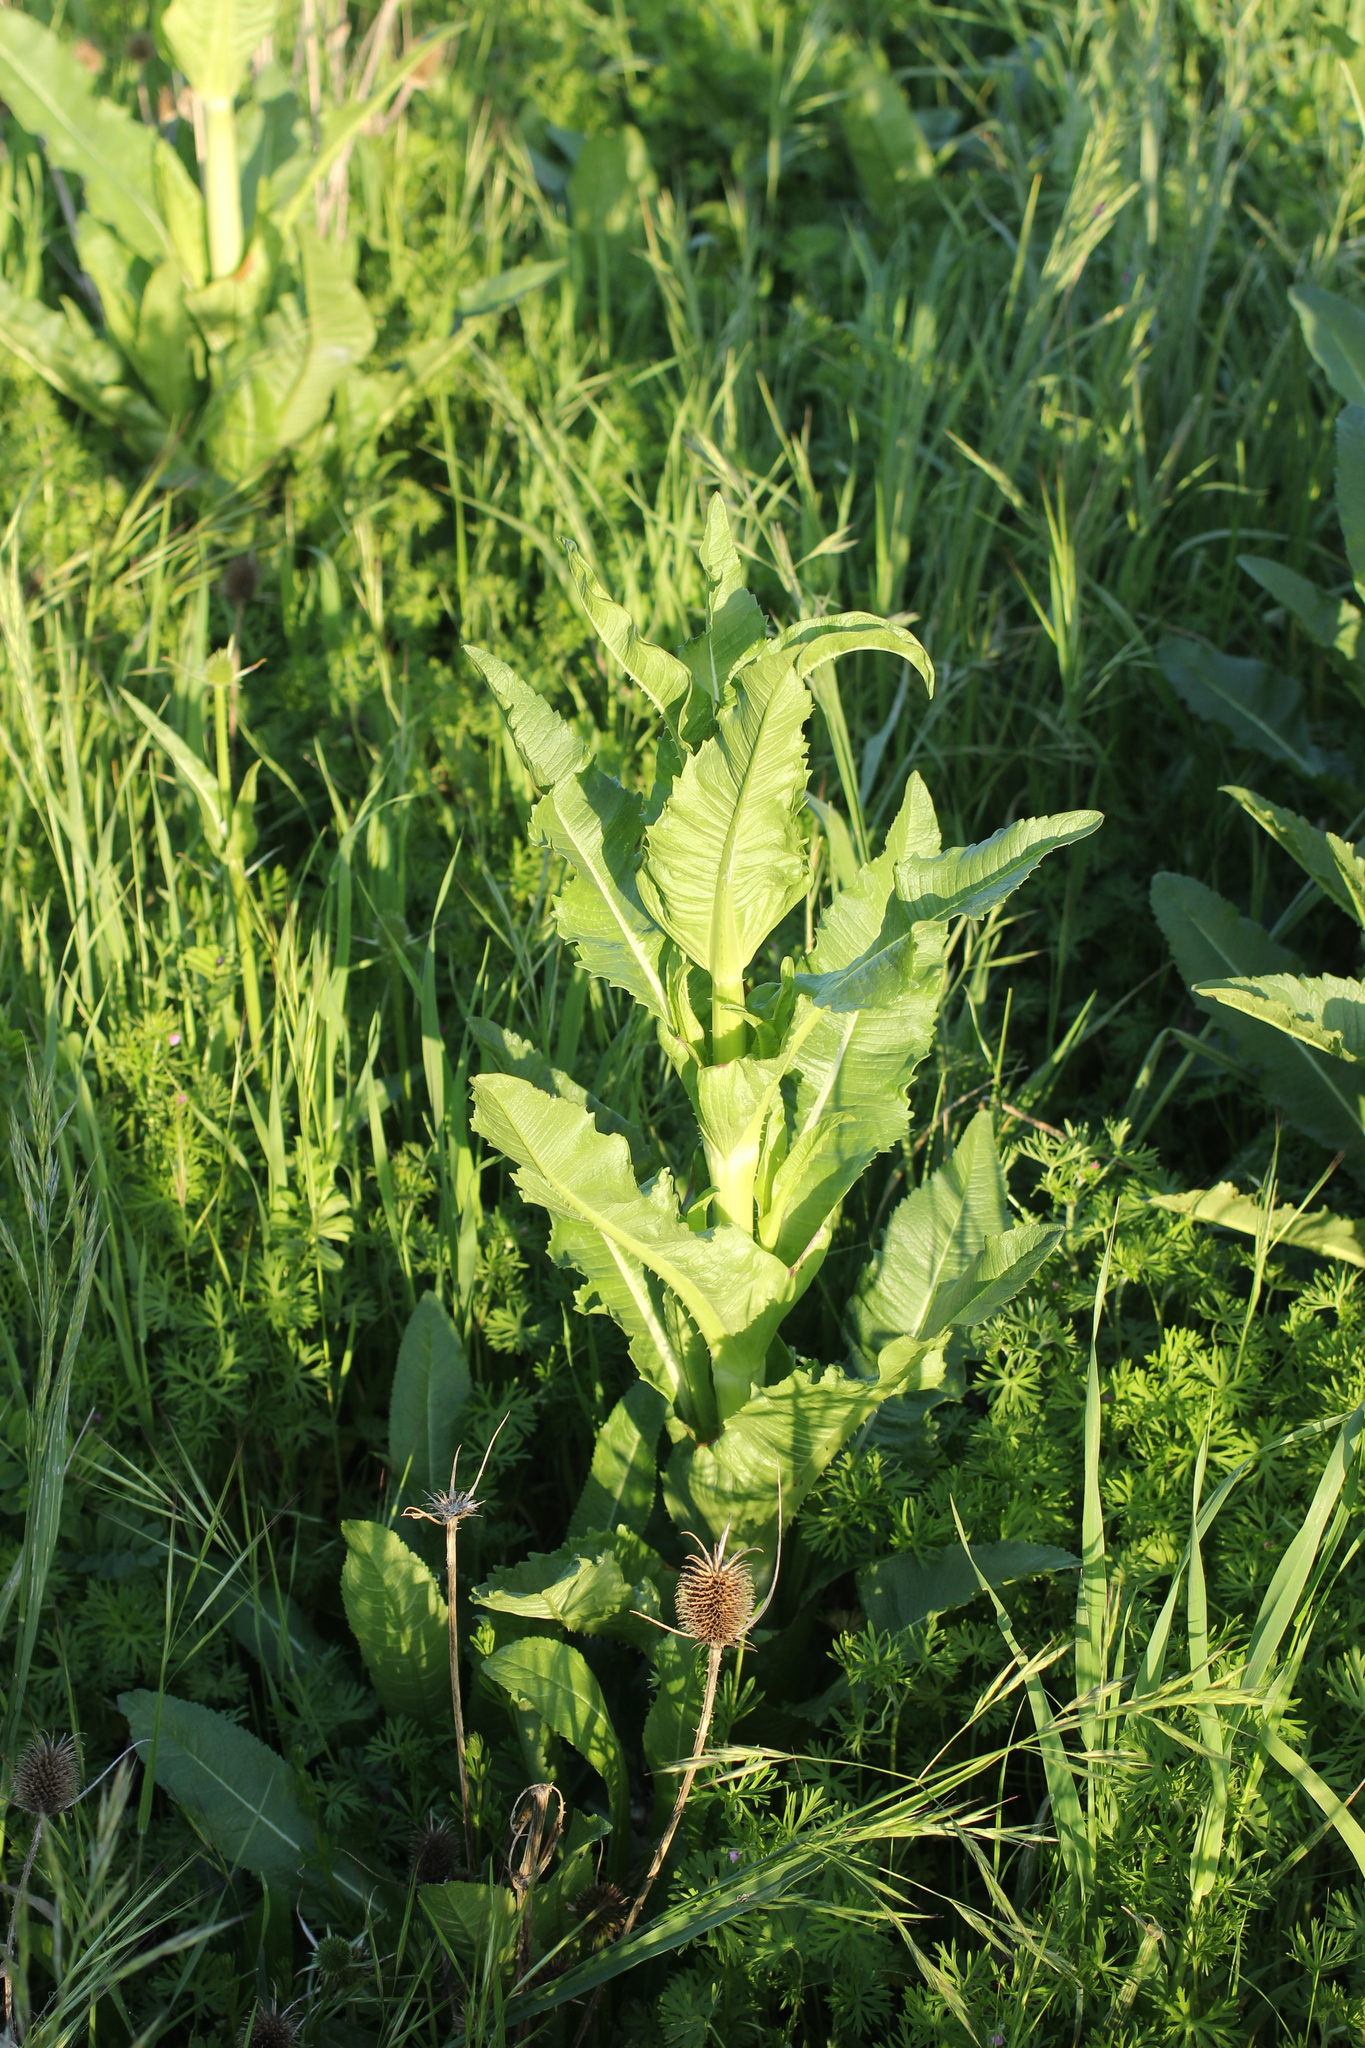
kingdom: Plantae
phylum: Tracheophyta
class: Magnoliopsida
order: Dipsacales
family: Caprifoliaceae
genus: Dipsacus
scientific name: Dipsacus sativus
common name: Fuller's teasel
